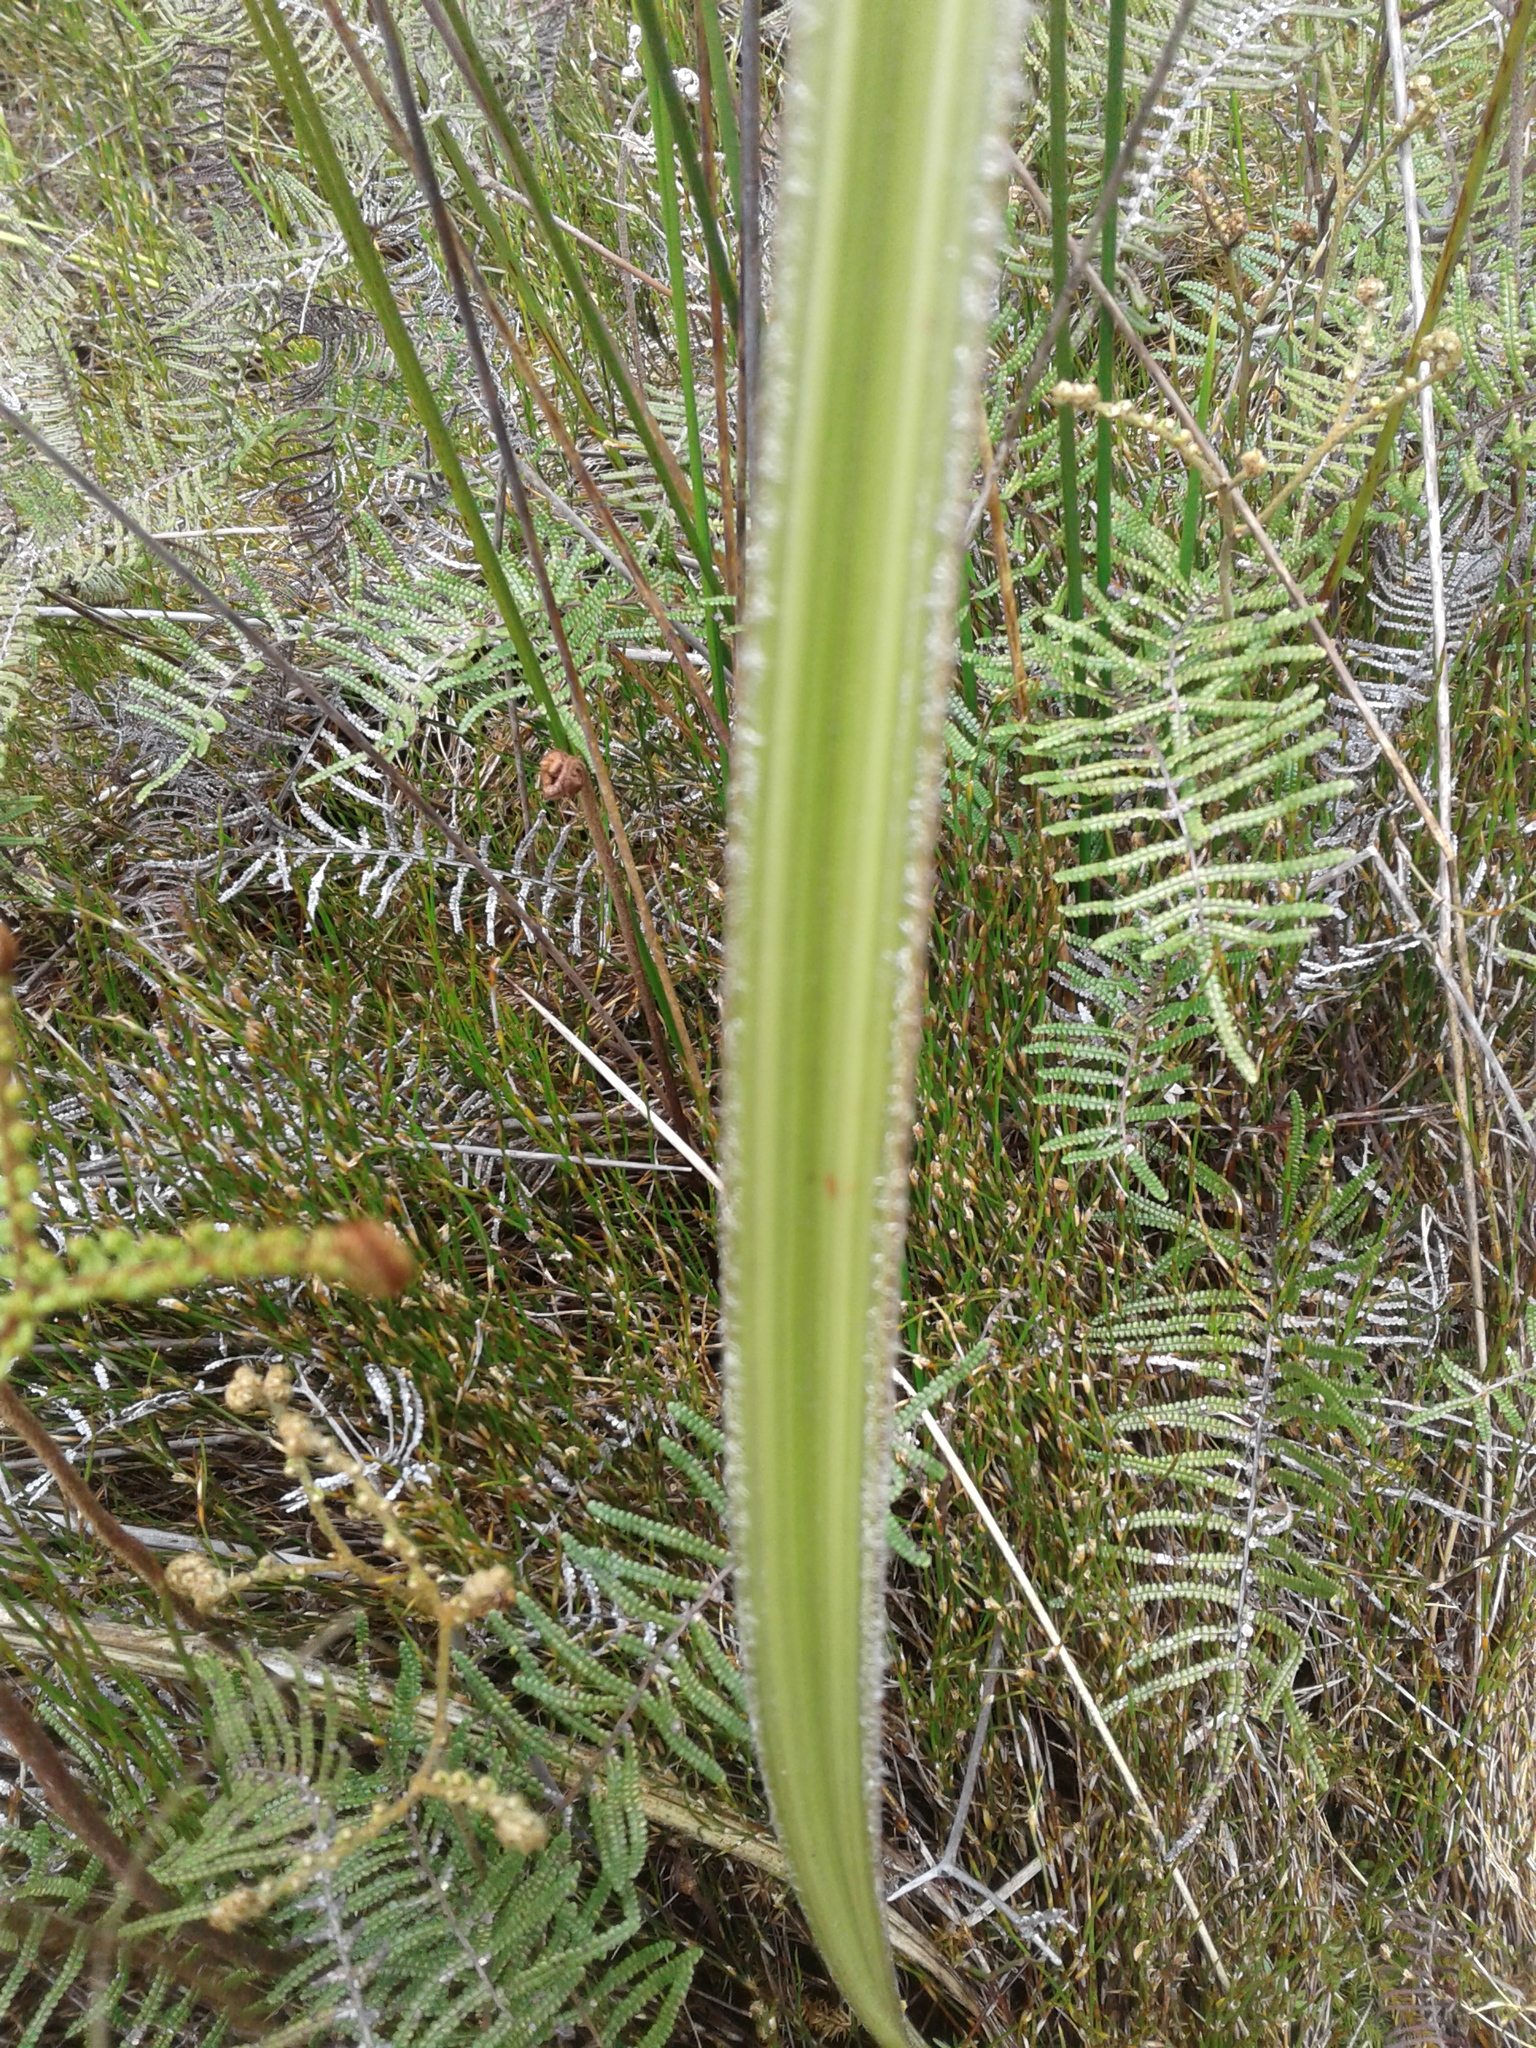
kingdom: Plantae
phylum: Tracheophyta
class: Liliopsida
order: Asparagales
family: Asteliaceae
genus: Astelia
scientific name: Astelia
